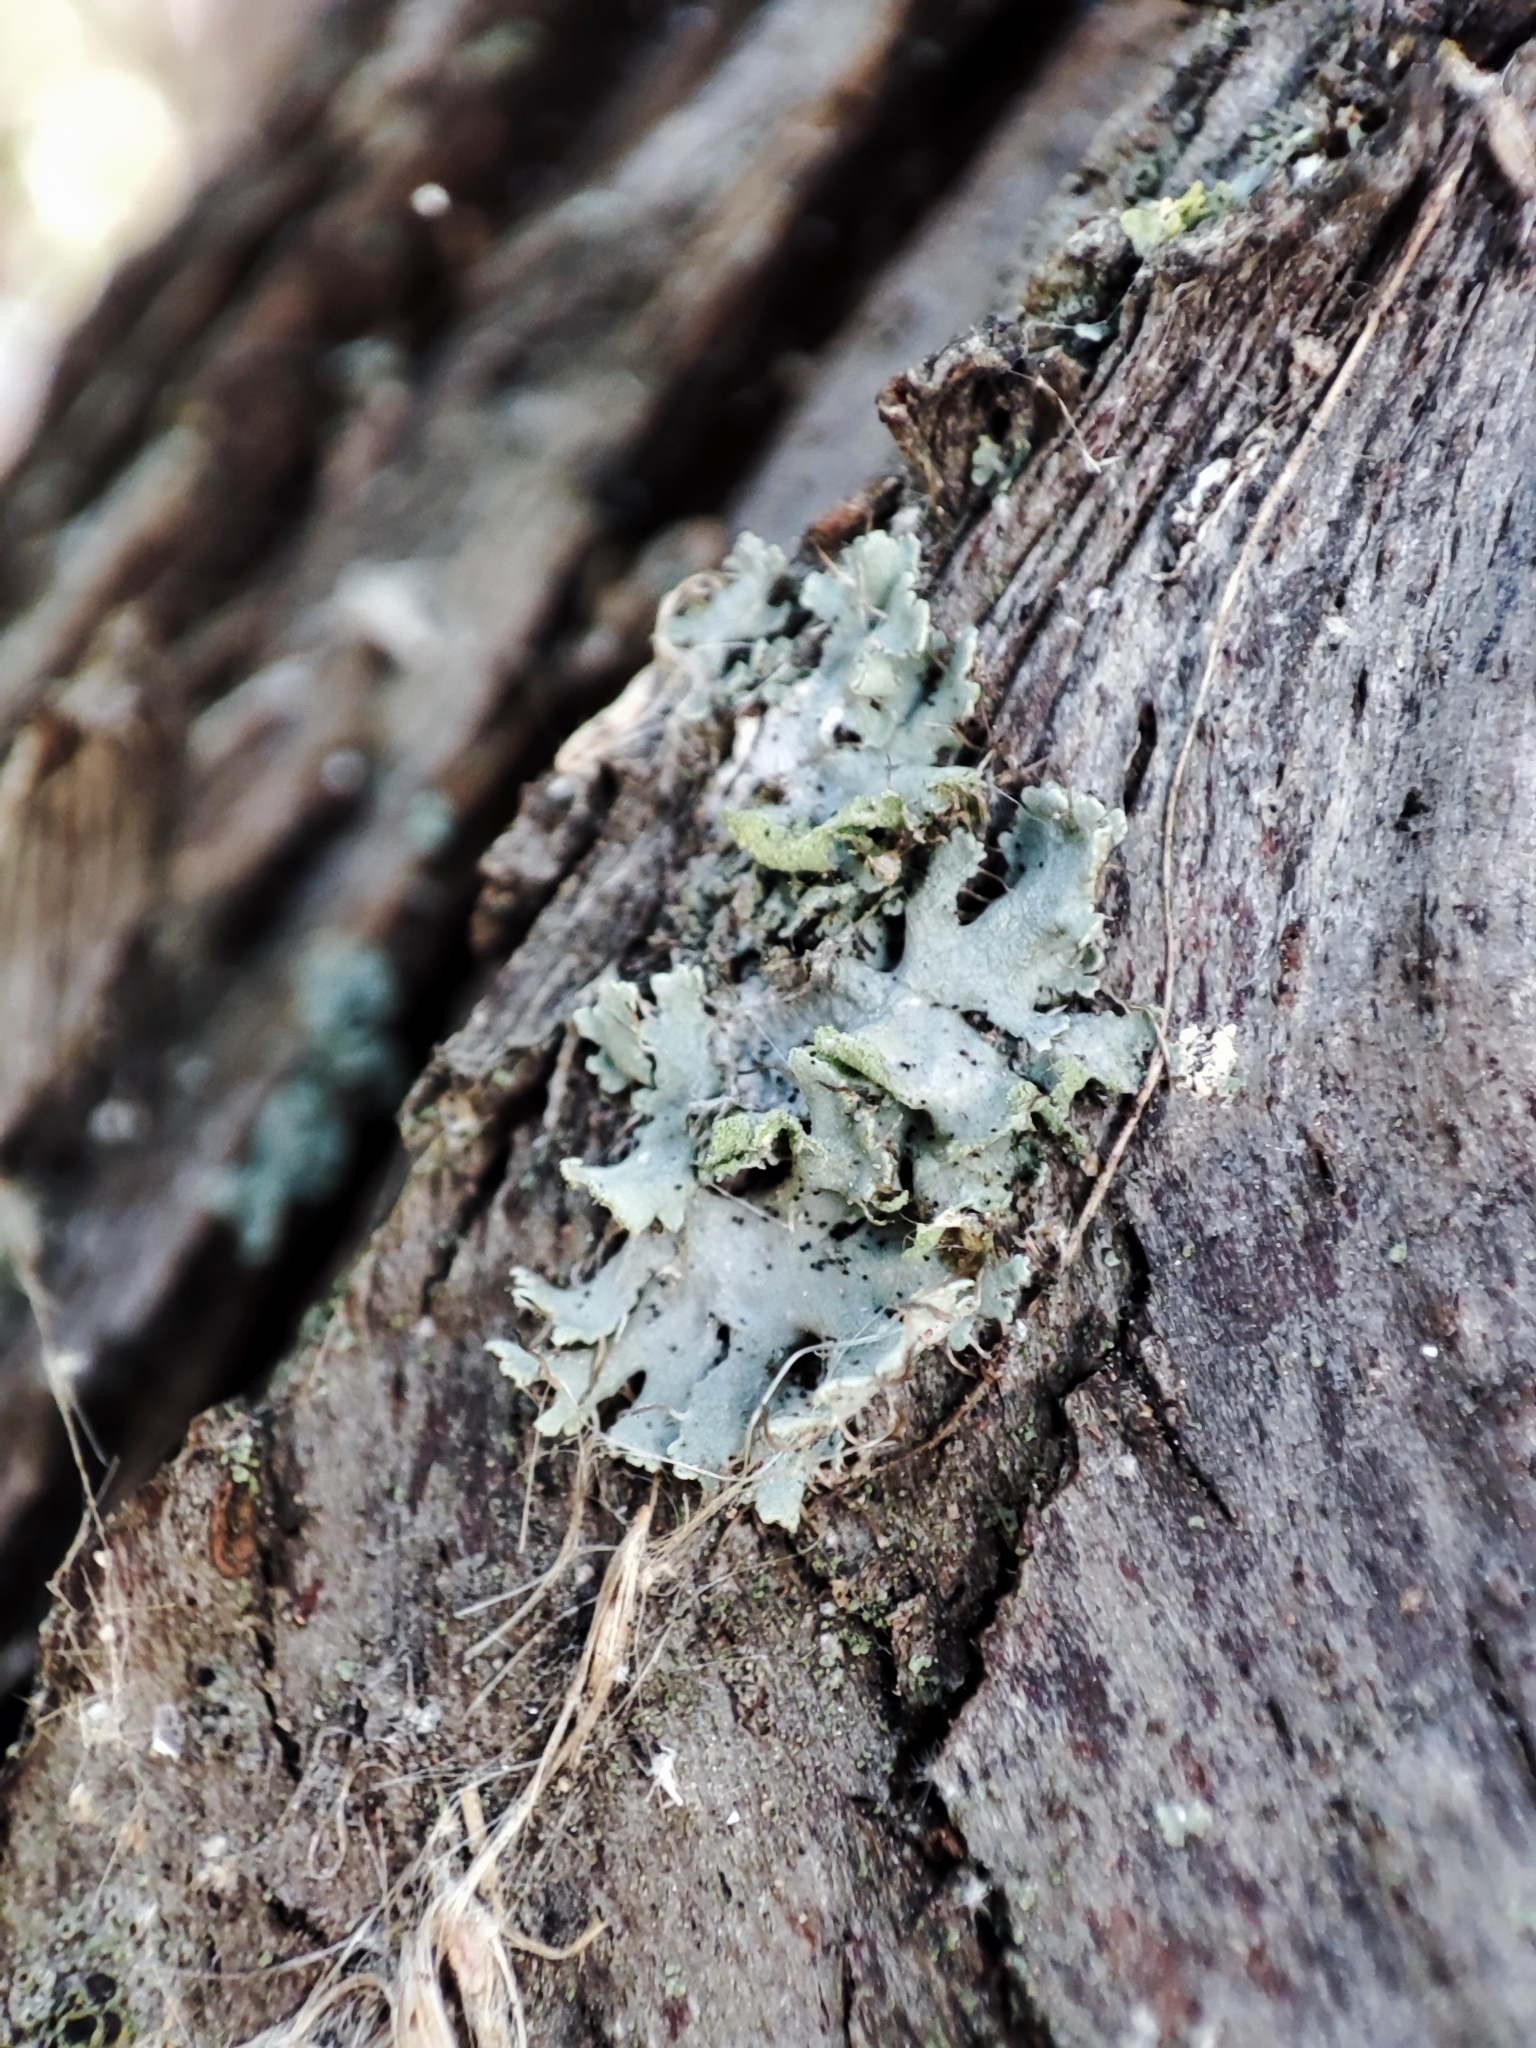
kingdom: Fungi
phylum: Ascomycota
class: Lecanoromycetes
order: Caliciales
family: Physciaceae
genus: Physcia
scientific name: Physcia dubia
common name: Powder-tipped rosette lichen
